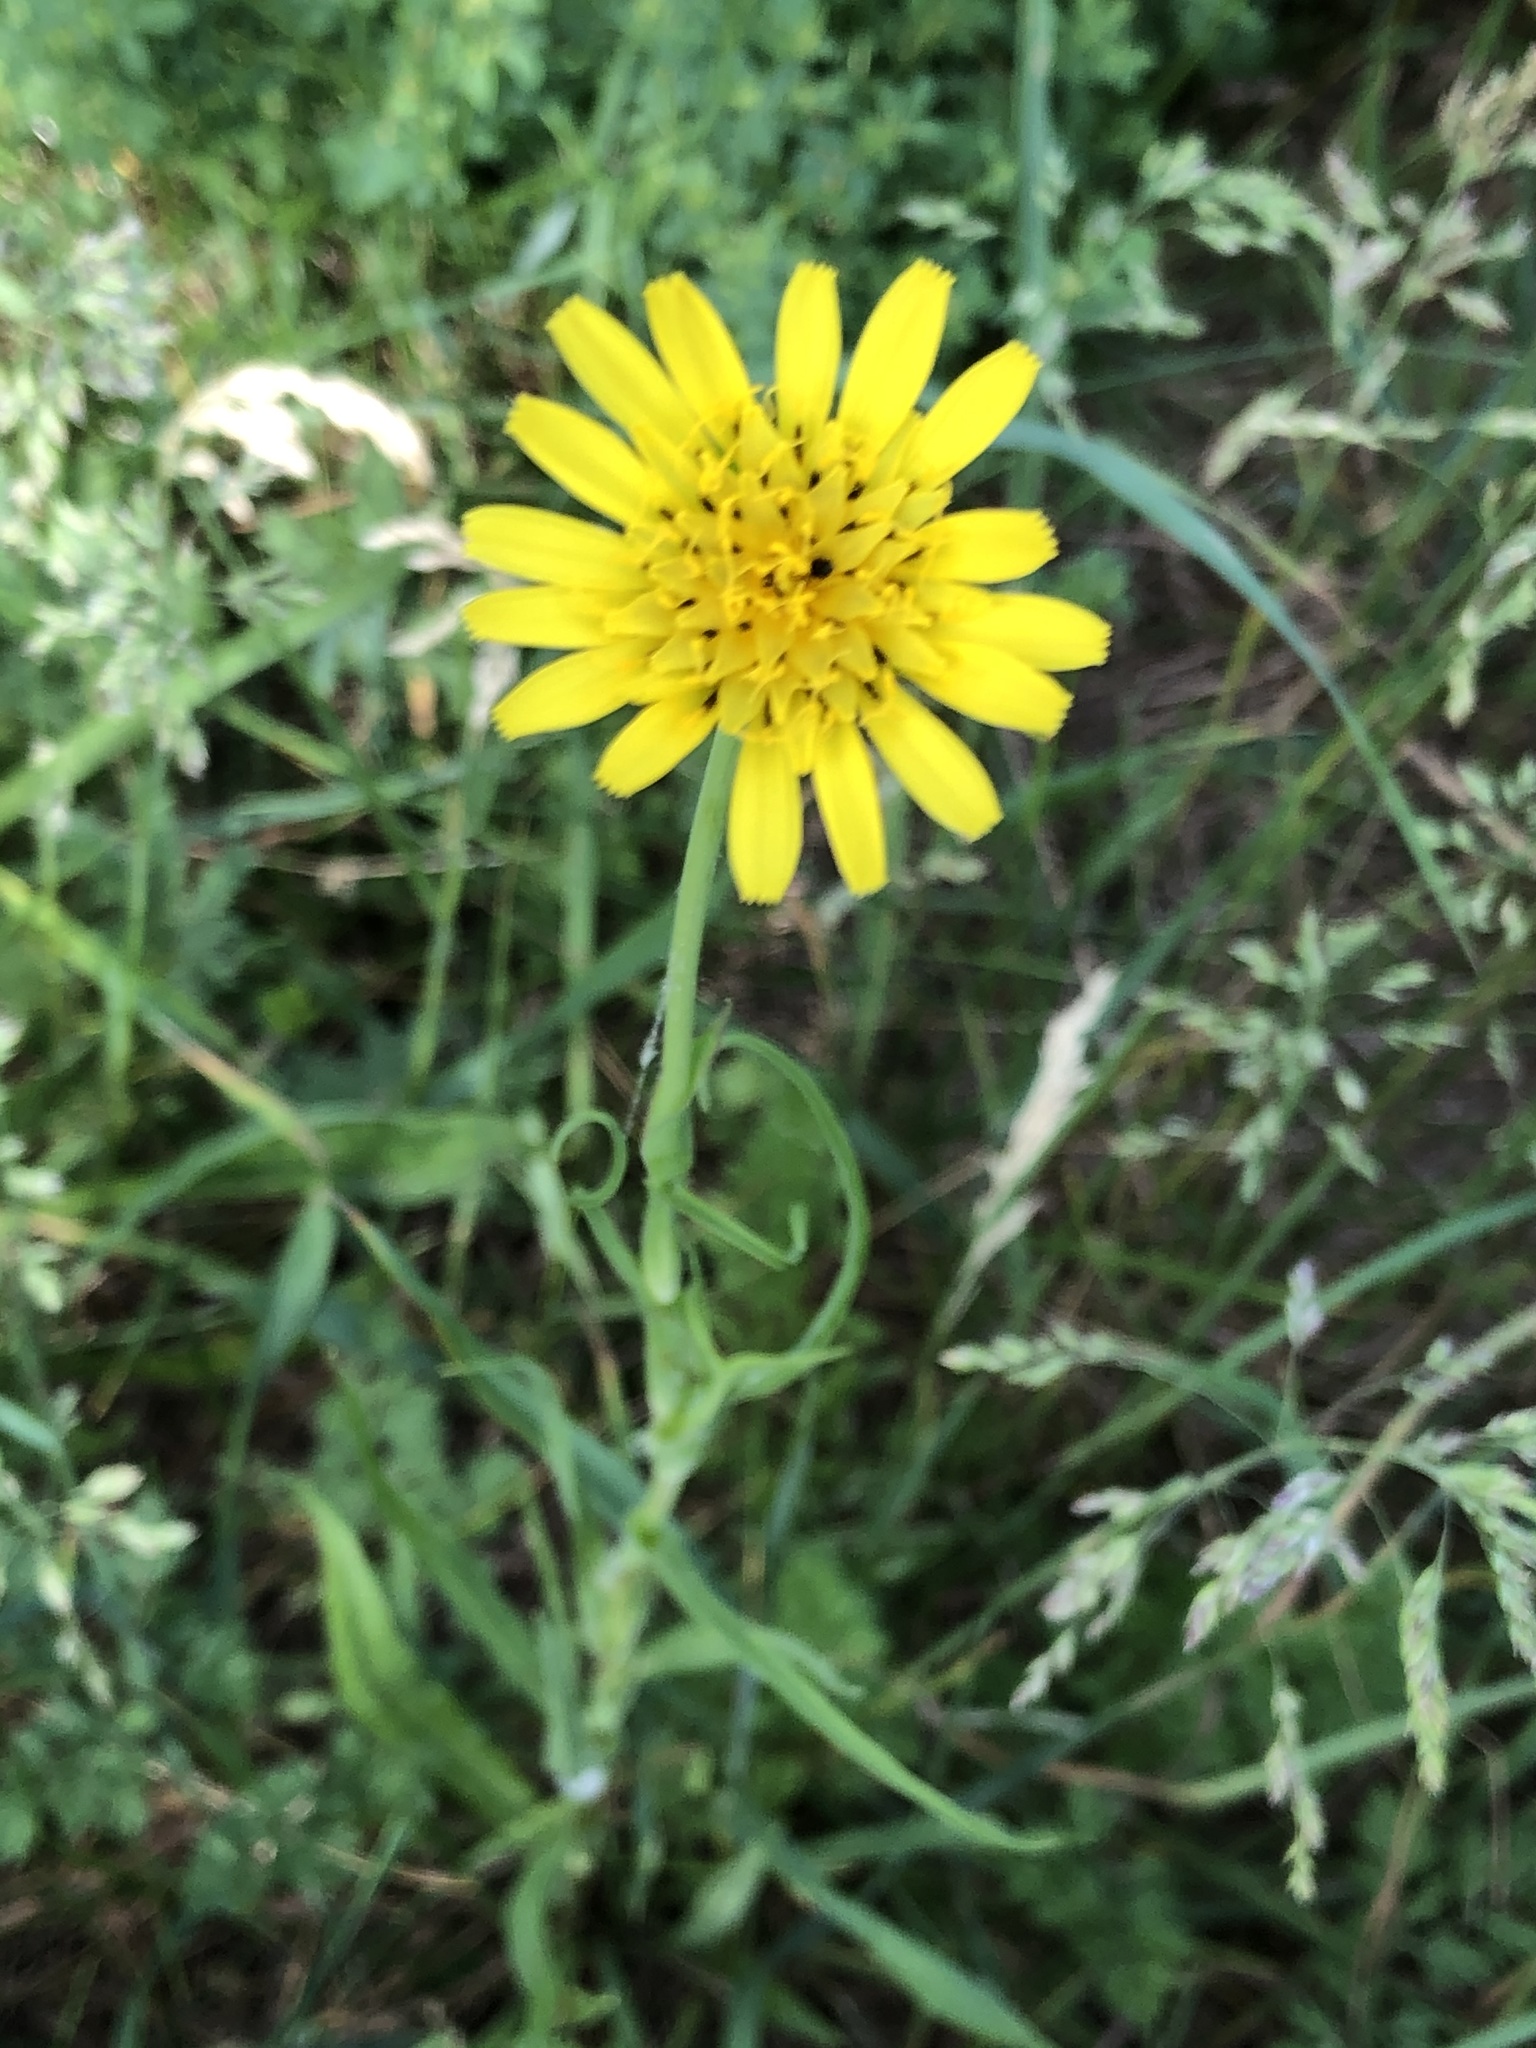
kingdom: Plantae
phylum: Tracheophyta
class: Magnoliopsida
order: Asterales
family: Asteraceae
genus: Tragopogon
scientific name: Tragopogon pratensis
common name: Goat's-beard
